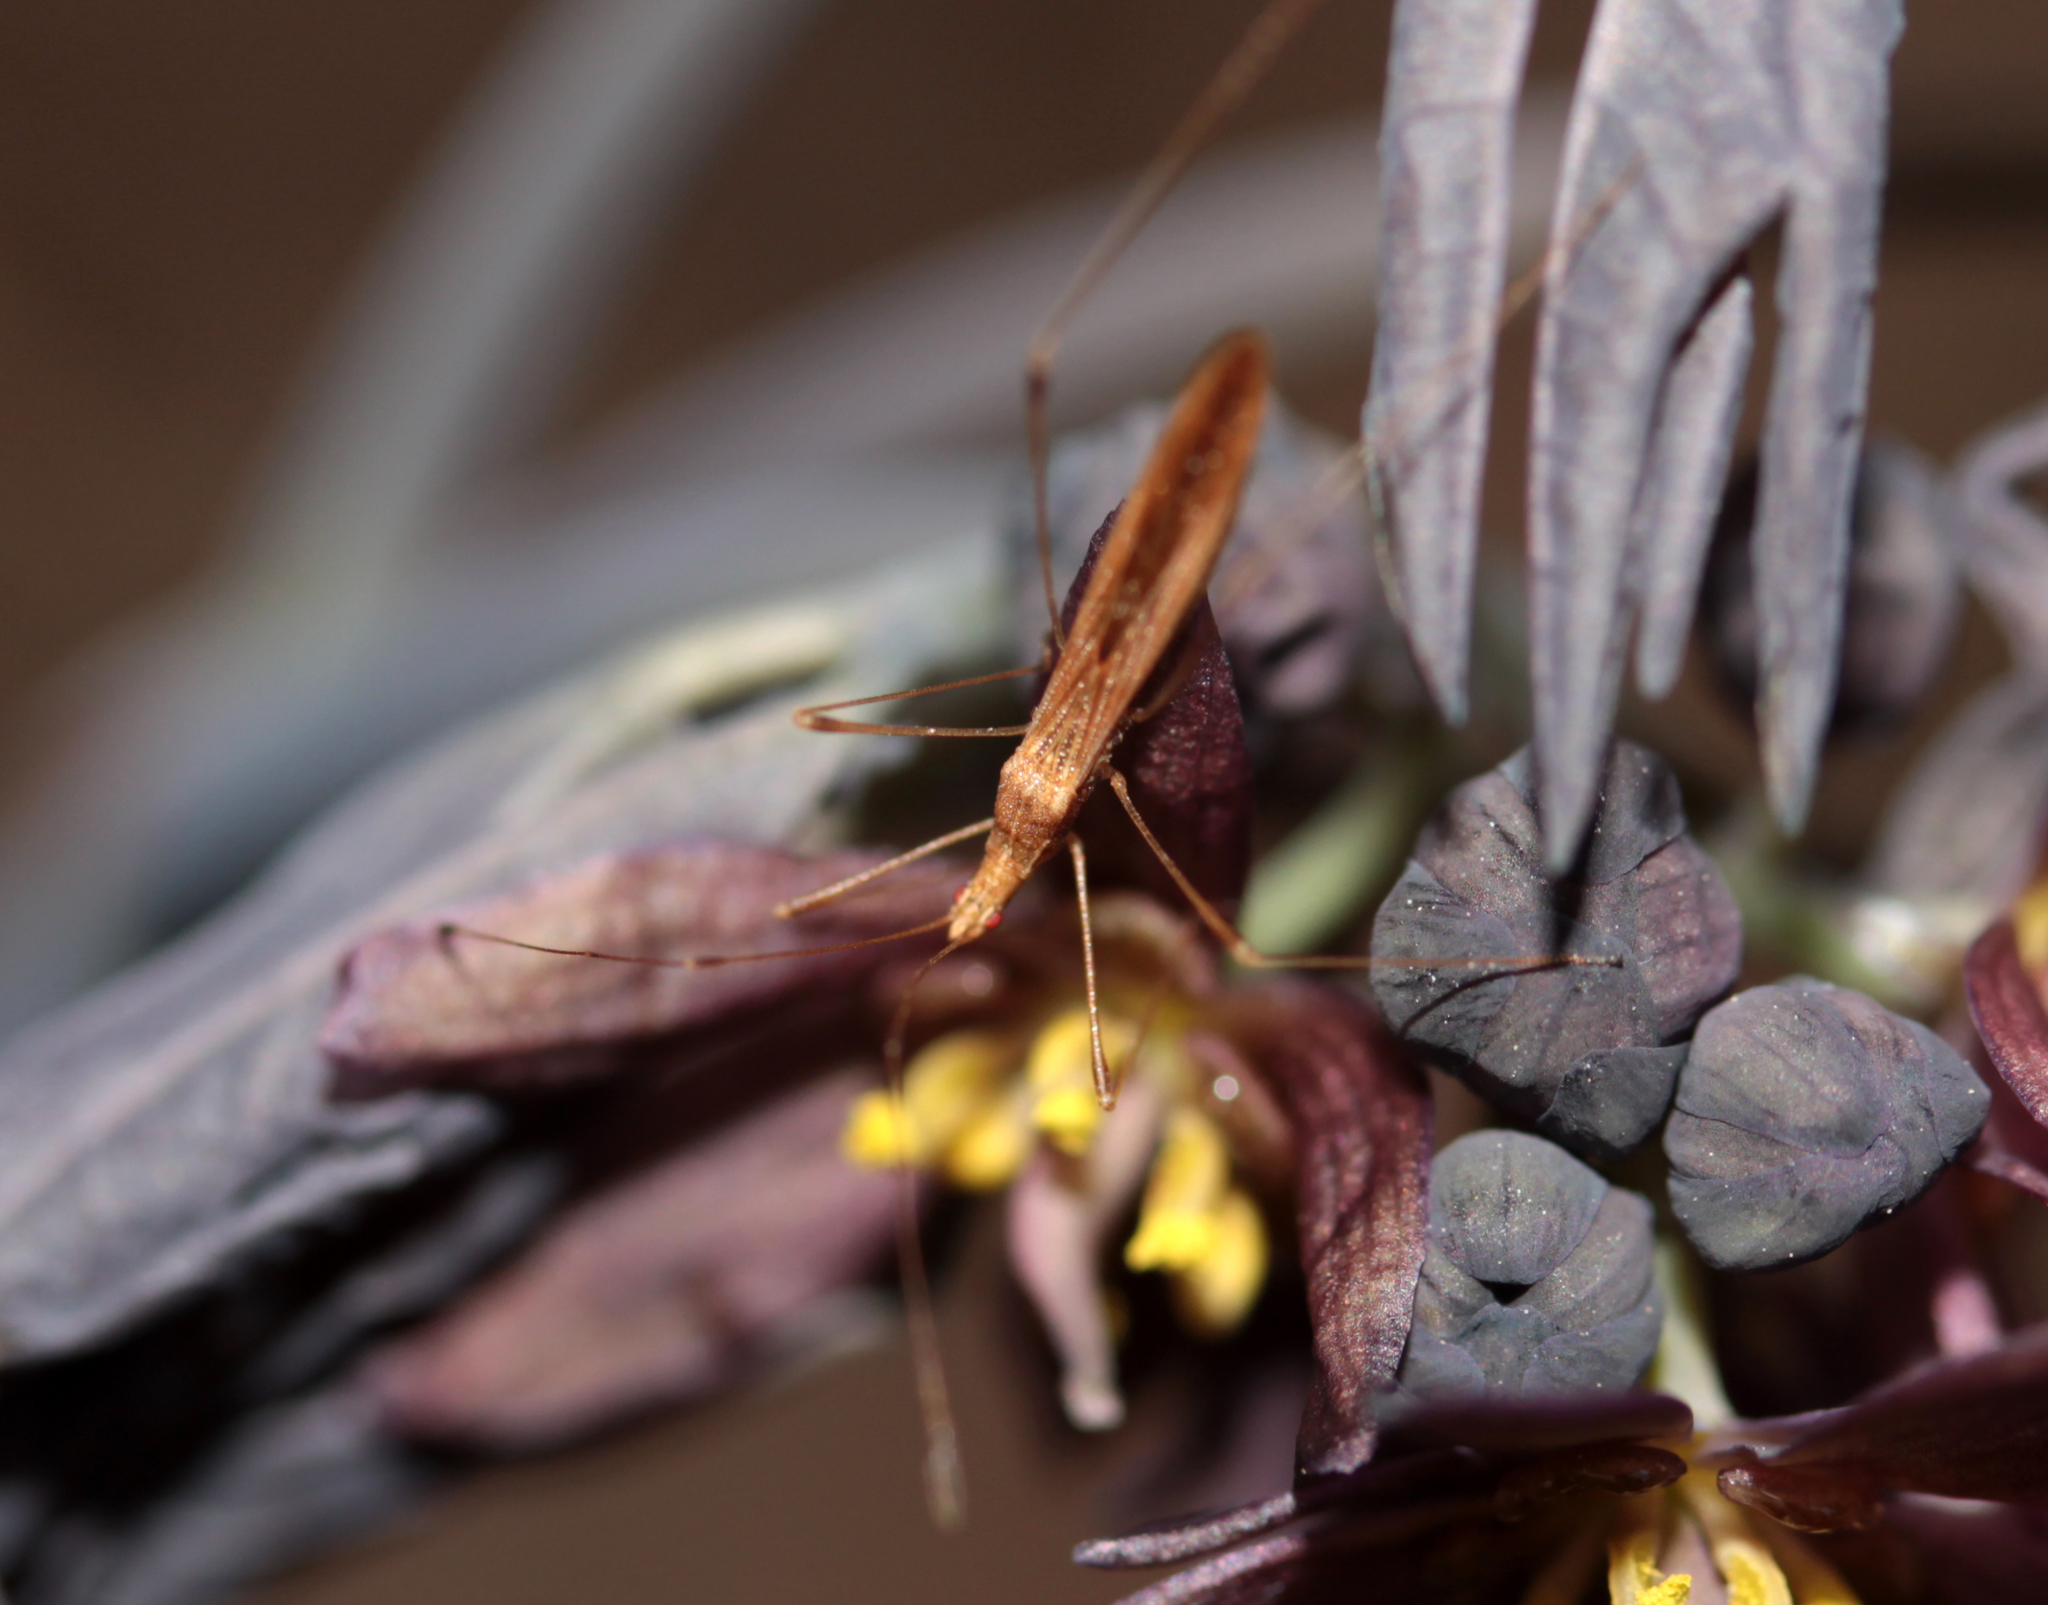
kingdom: Animalia
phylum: Arthropoda
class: Insecta
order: Hemiptera
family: Berytidae
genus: Neoneides
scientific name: Neoneides muticus
